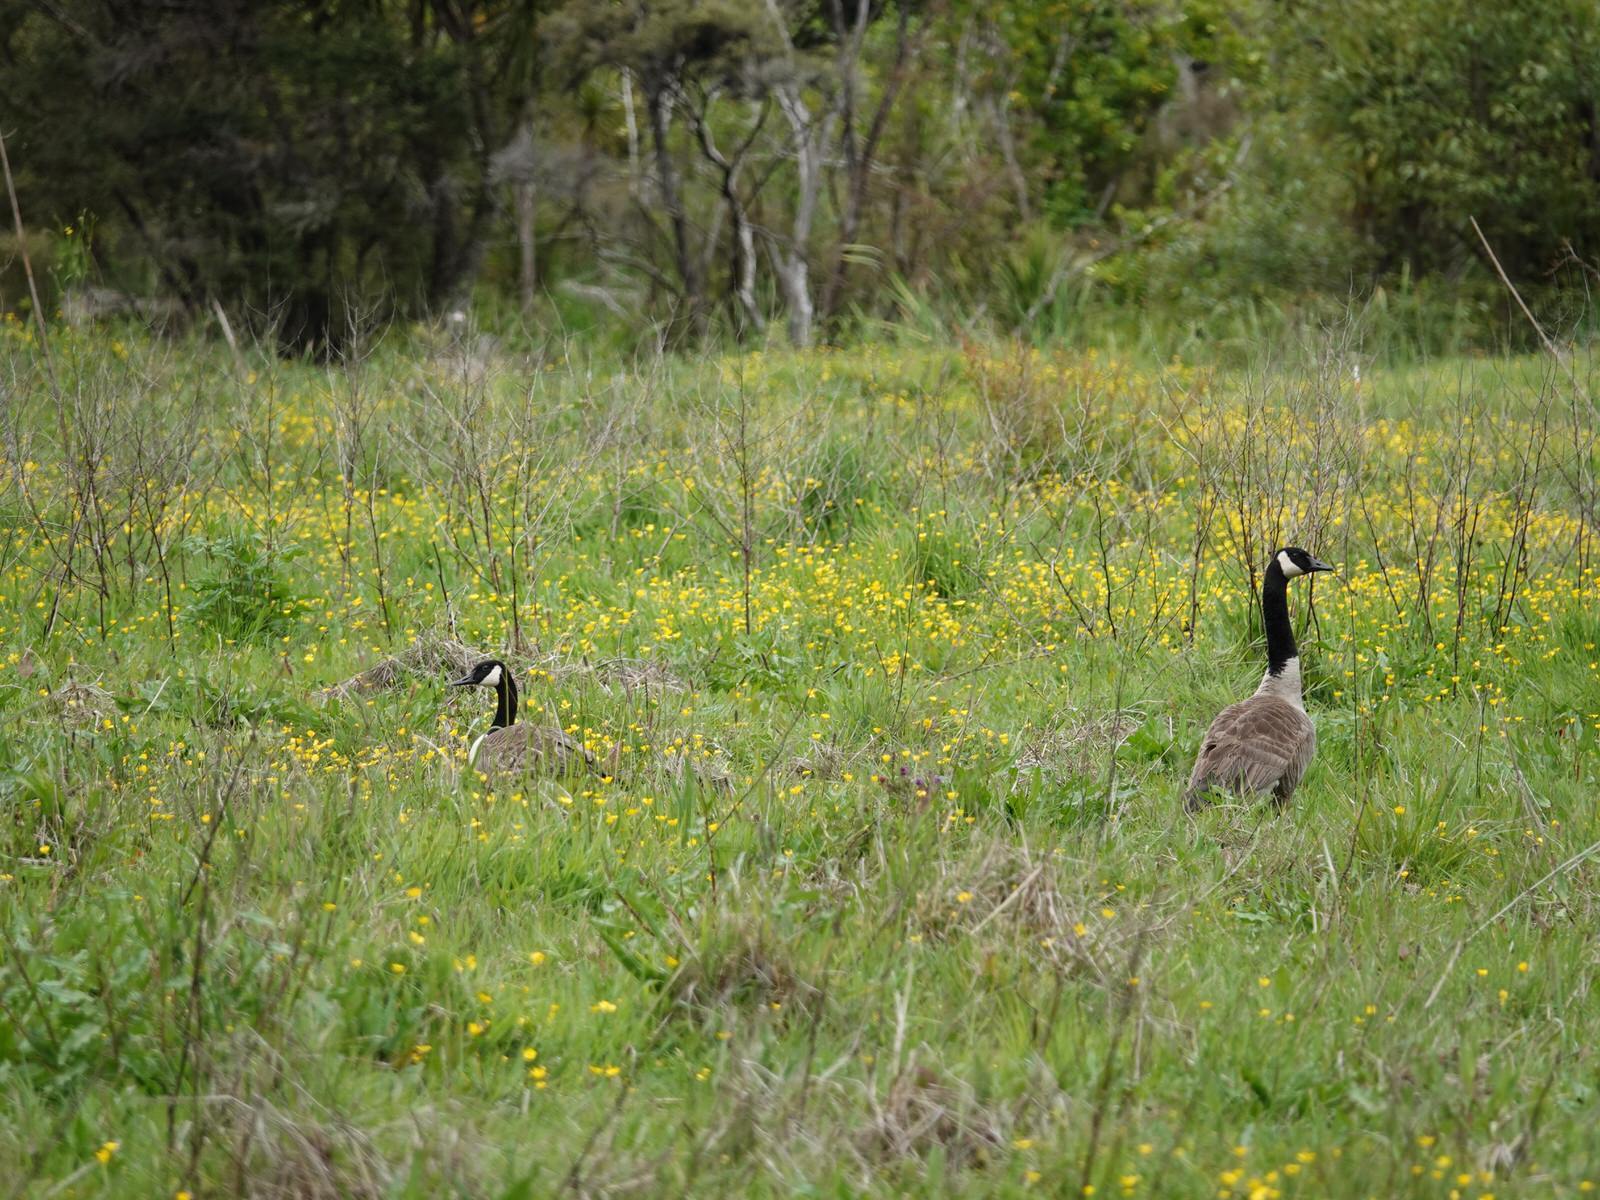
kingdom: Animalia
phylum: Chordata
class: Aves
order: Anseriformes
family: Anatidae
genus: Branta
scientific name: Branta canadensis
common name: Canada goose
